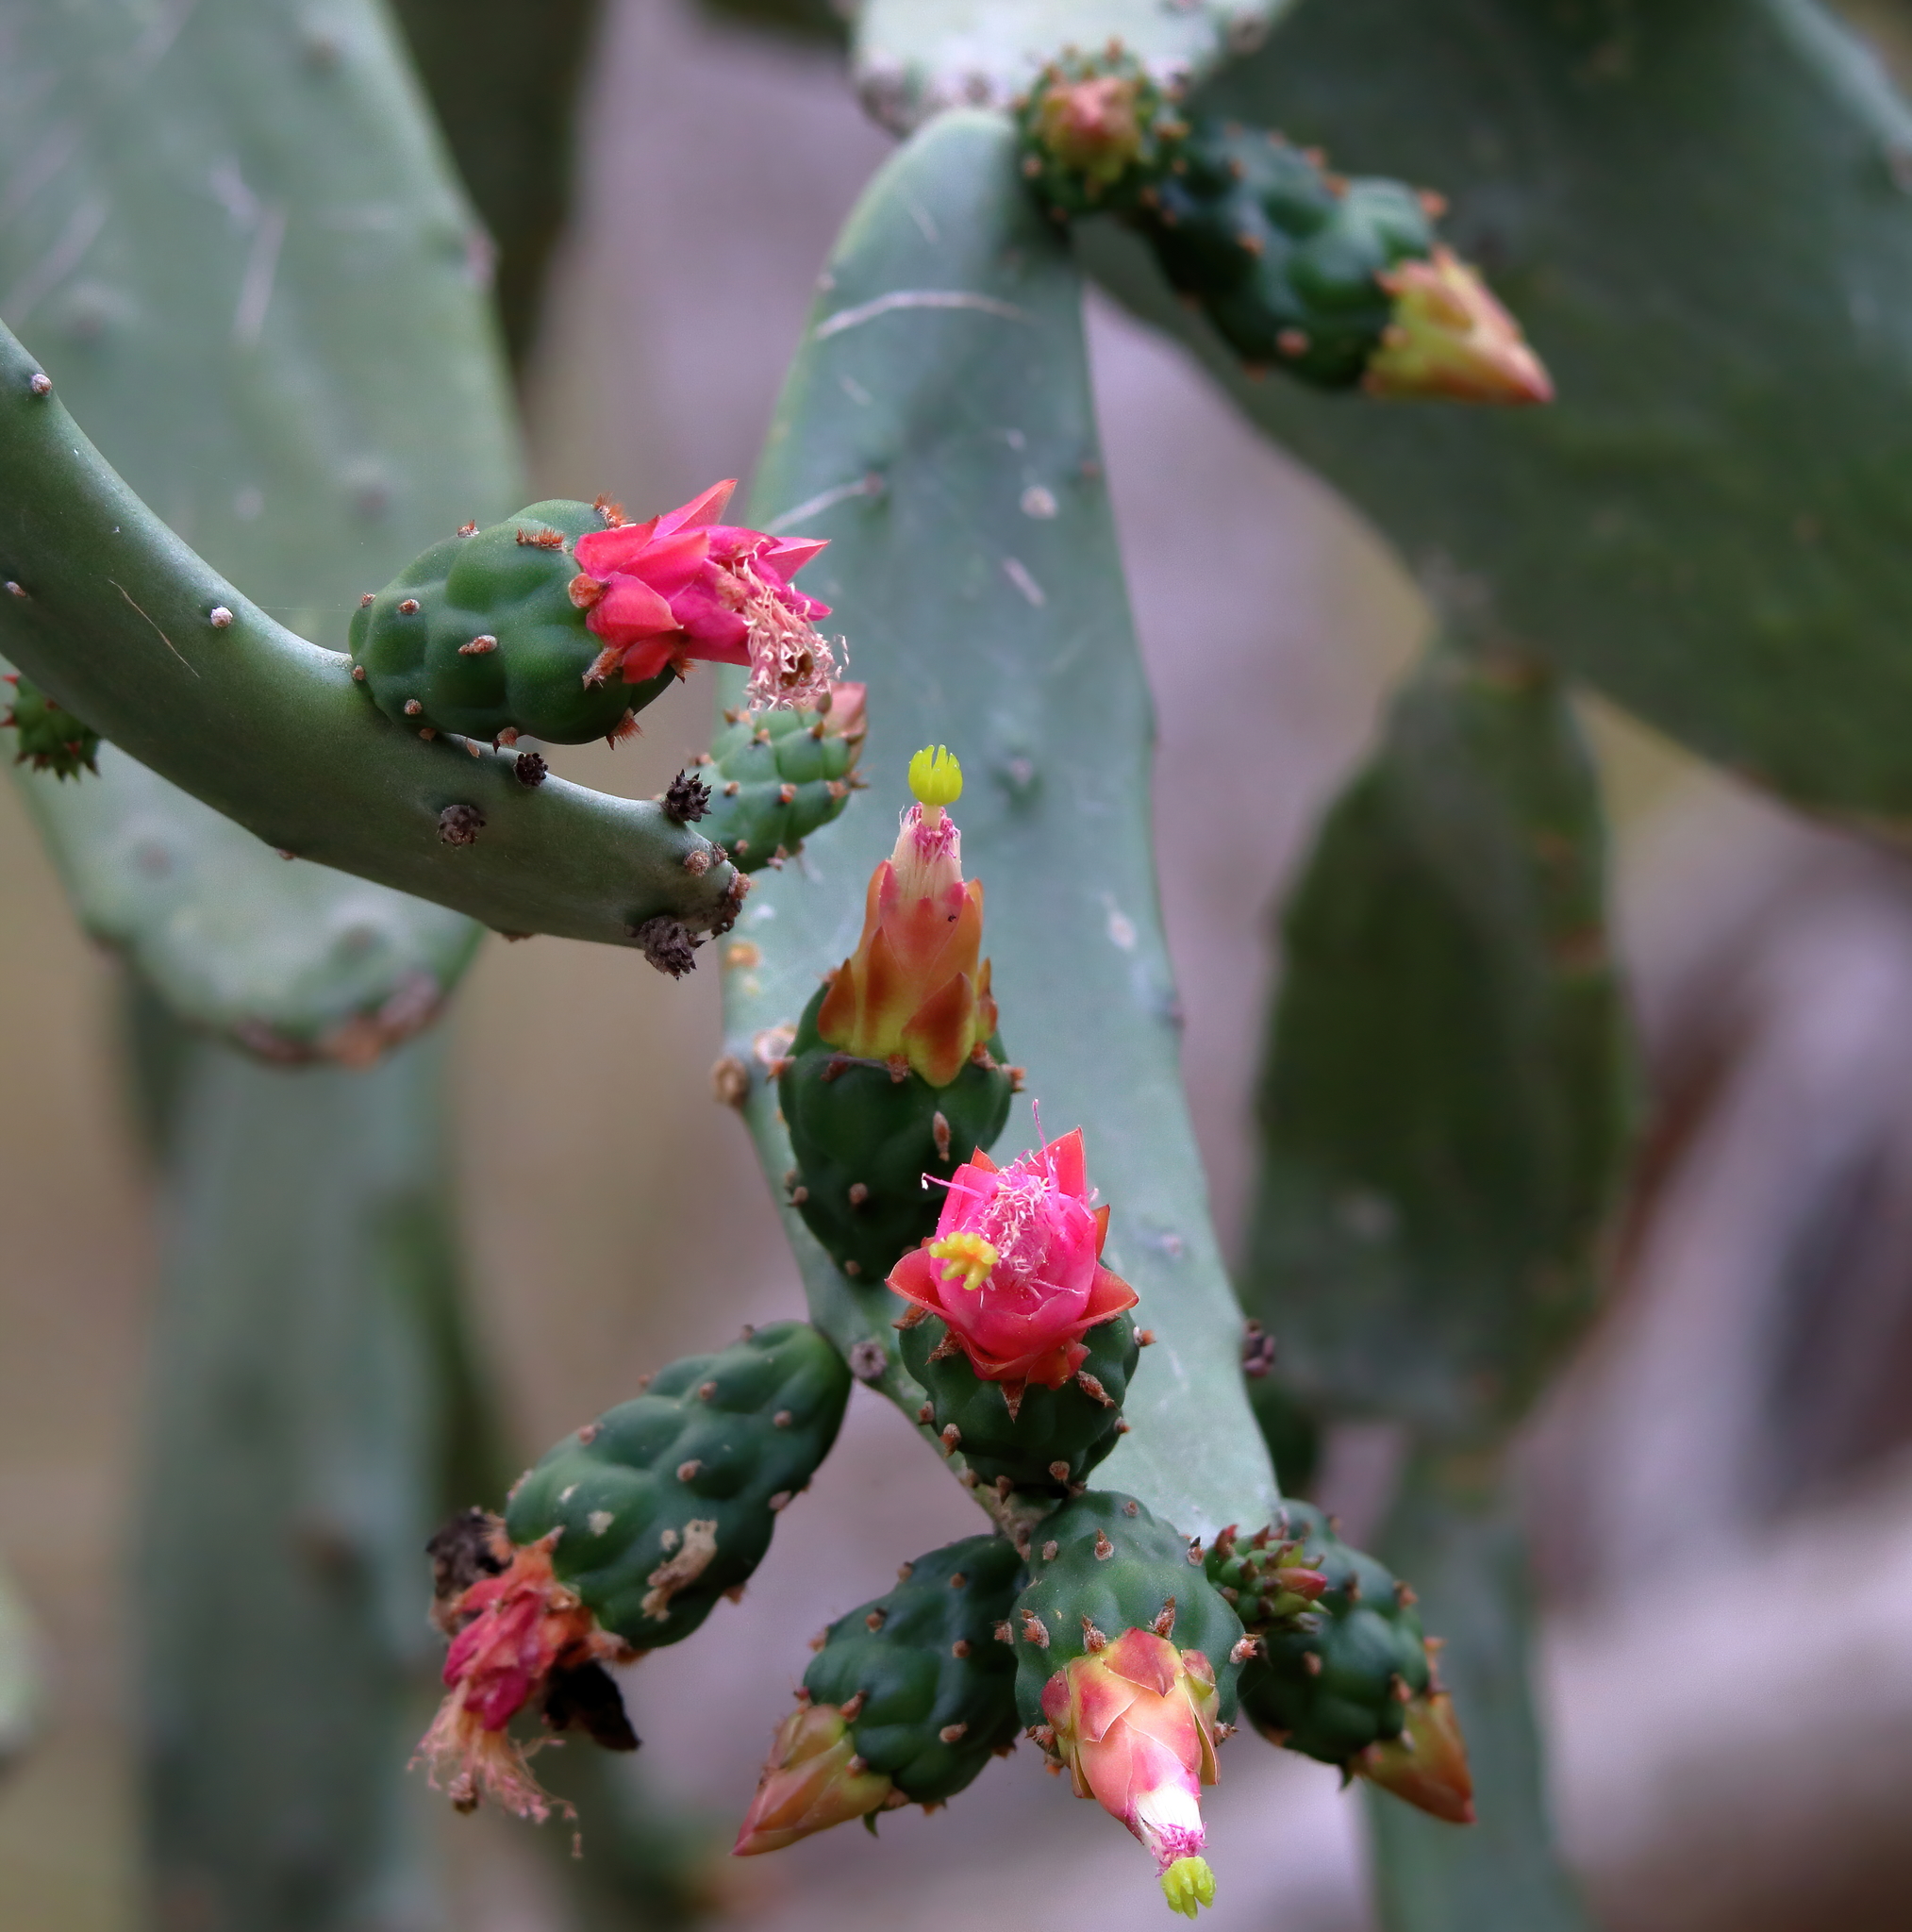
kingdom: Plantae
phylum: Tracheophyta
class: Magnoliopsida
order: Caryophyllales
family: Cactaceae
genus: Opuntia
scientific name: Opuntia cochenillifera
